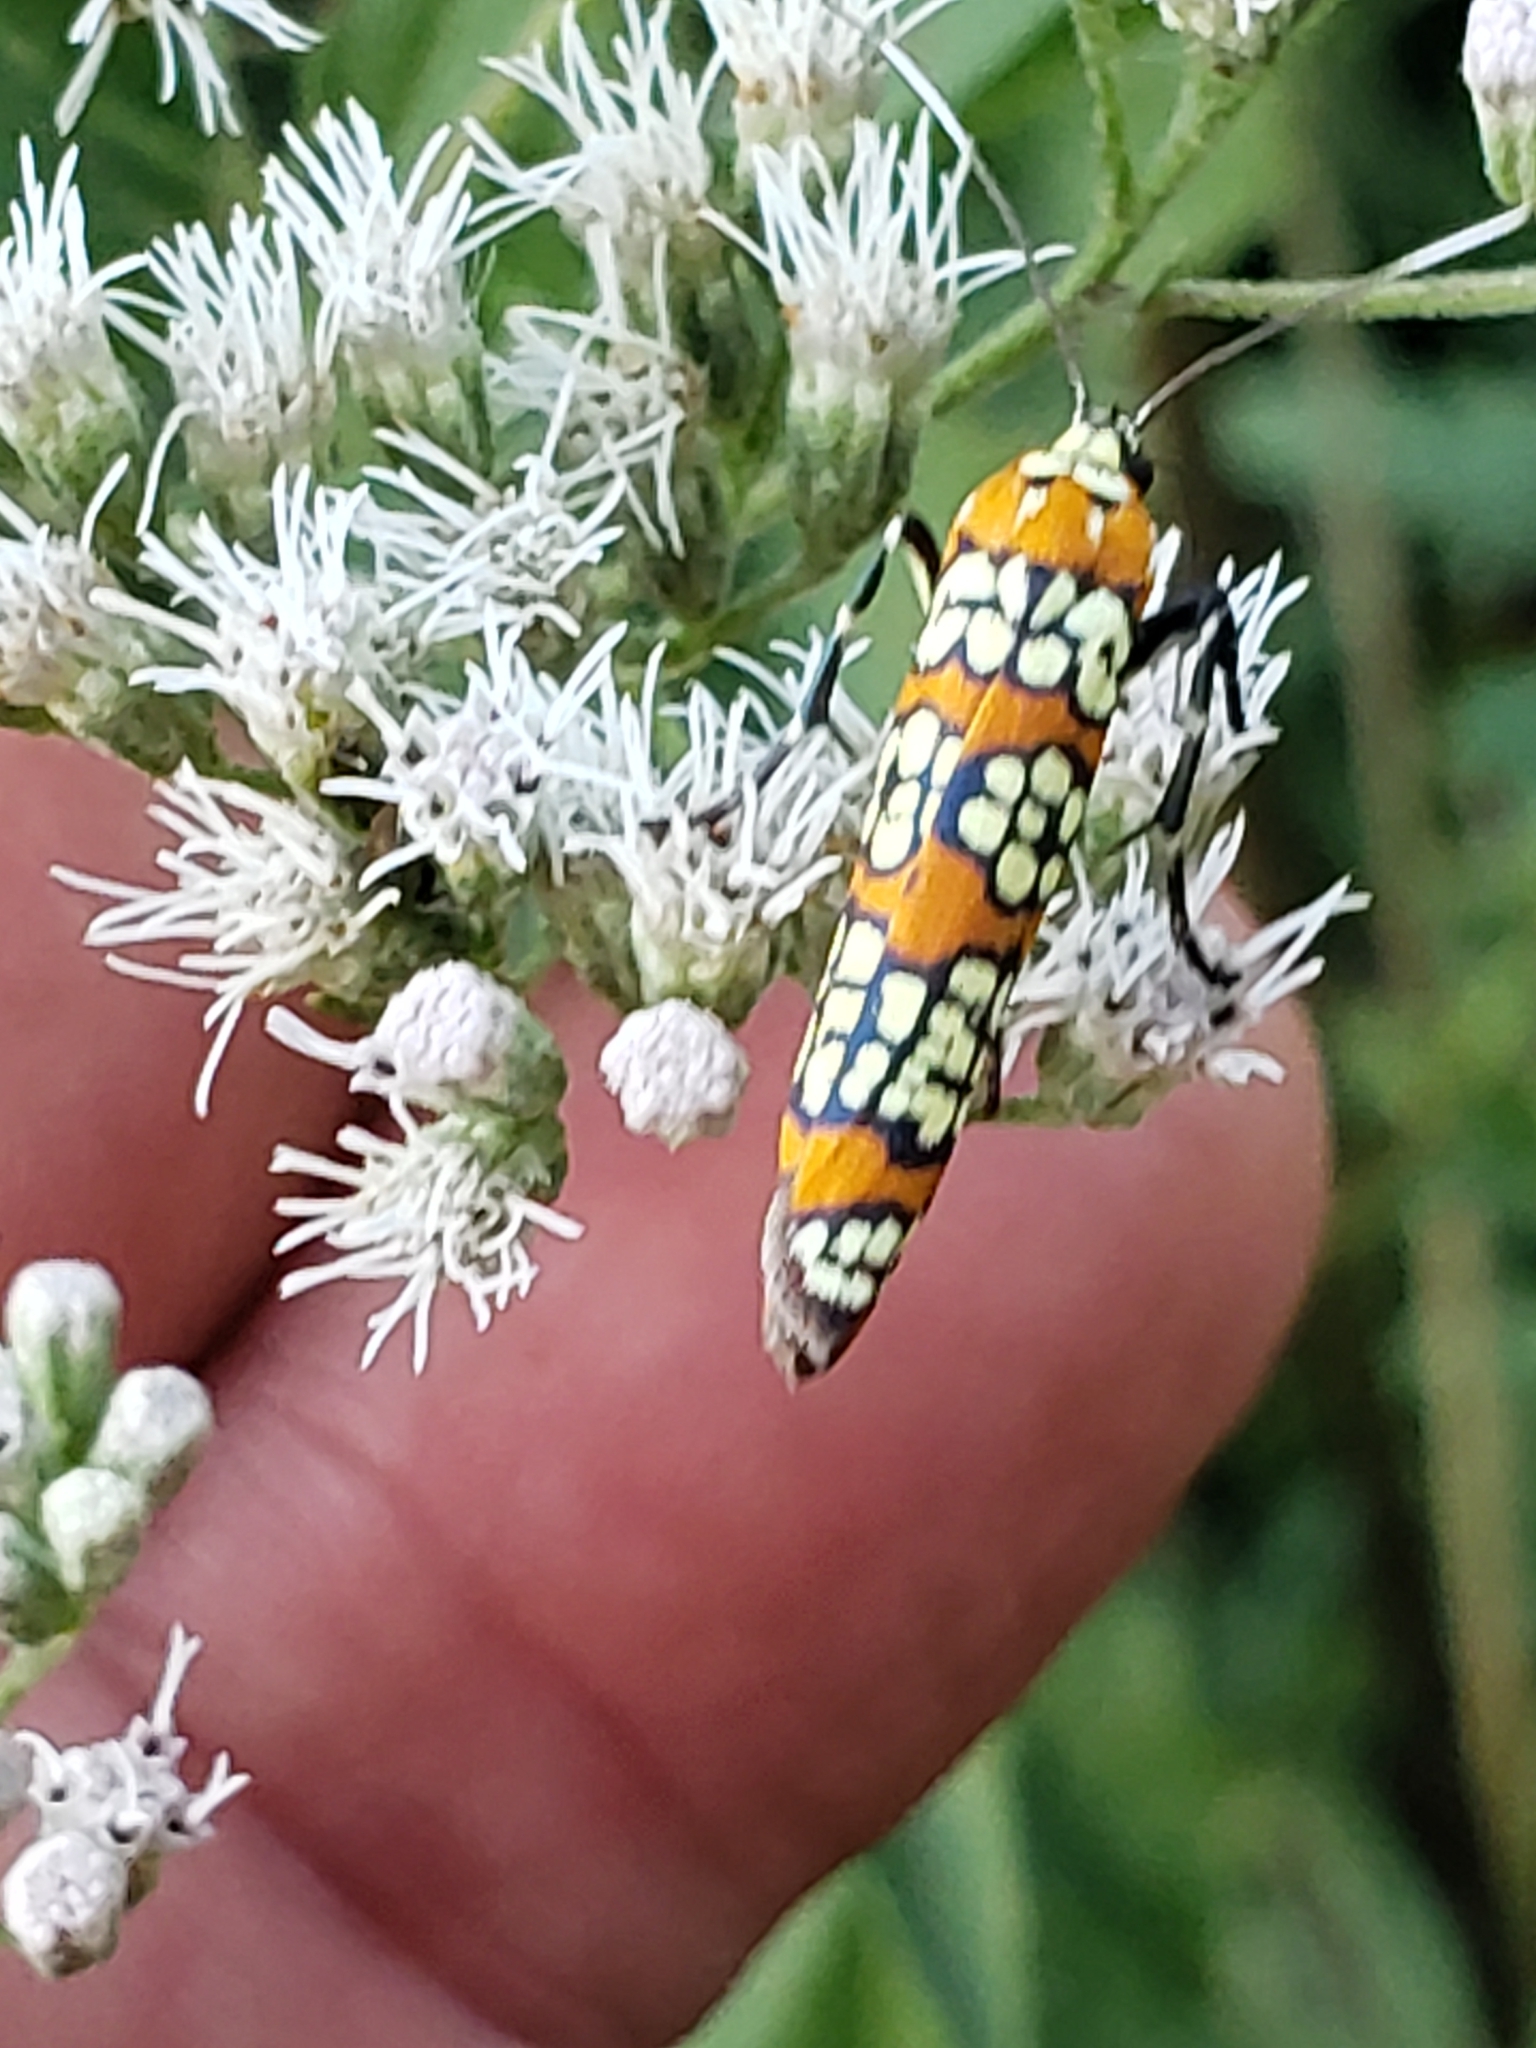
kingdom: Animalia
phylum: Arthropoda
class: Insecta
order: Lepidoptera
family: Attevidae
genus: Atteva
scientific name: Atteva punctella
